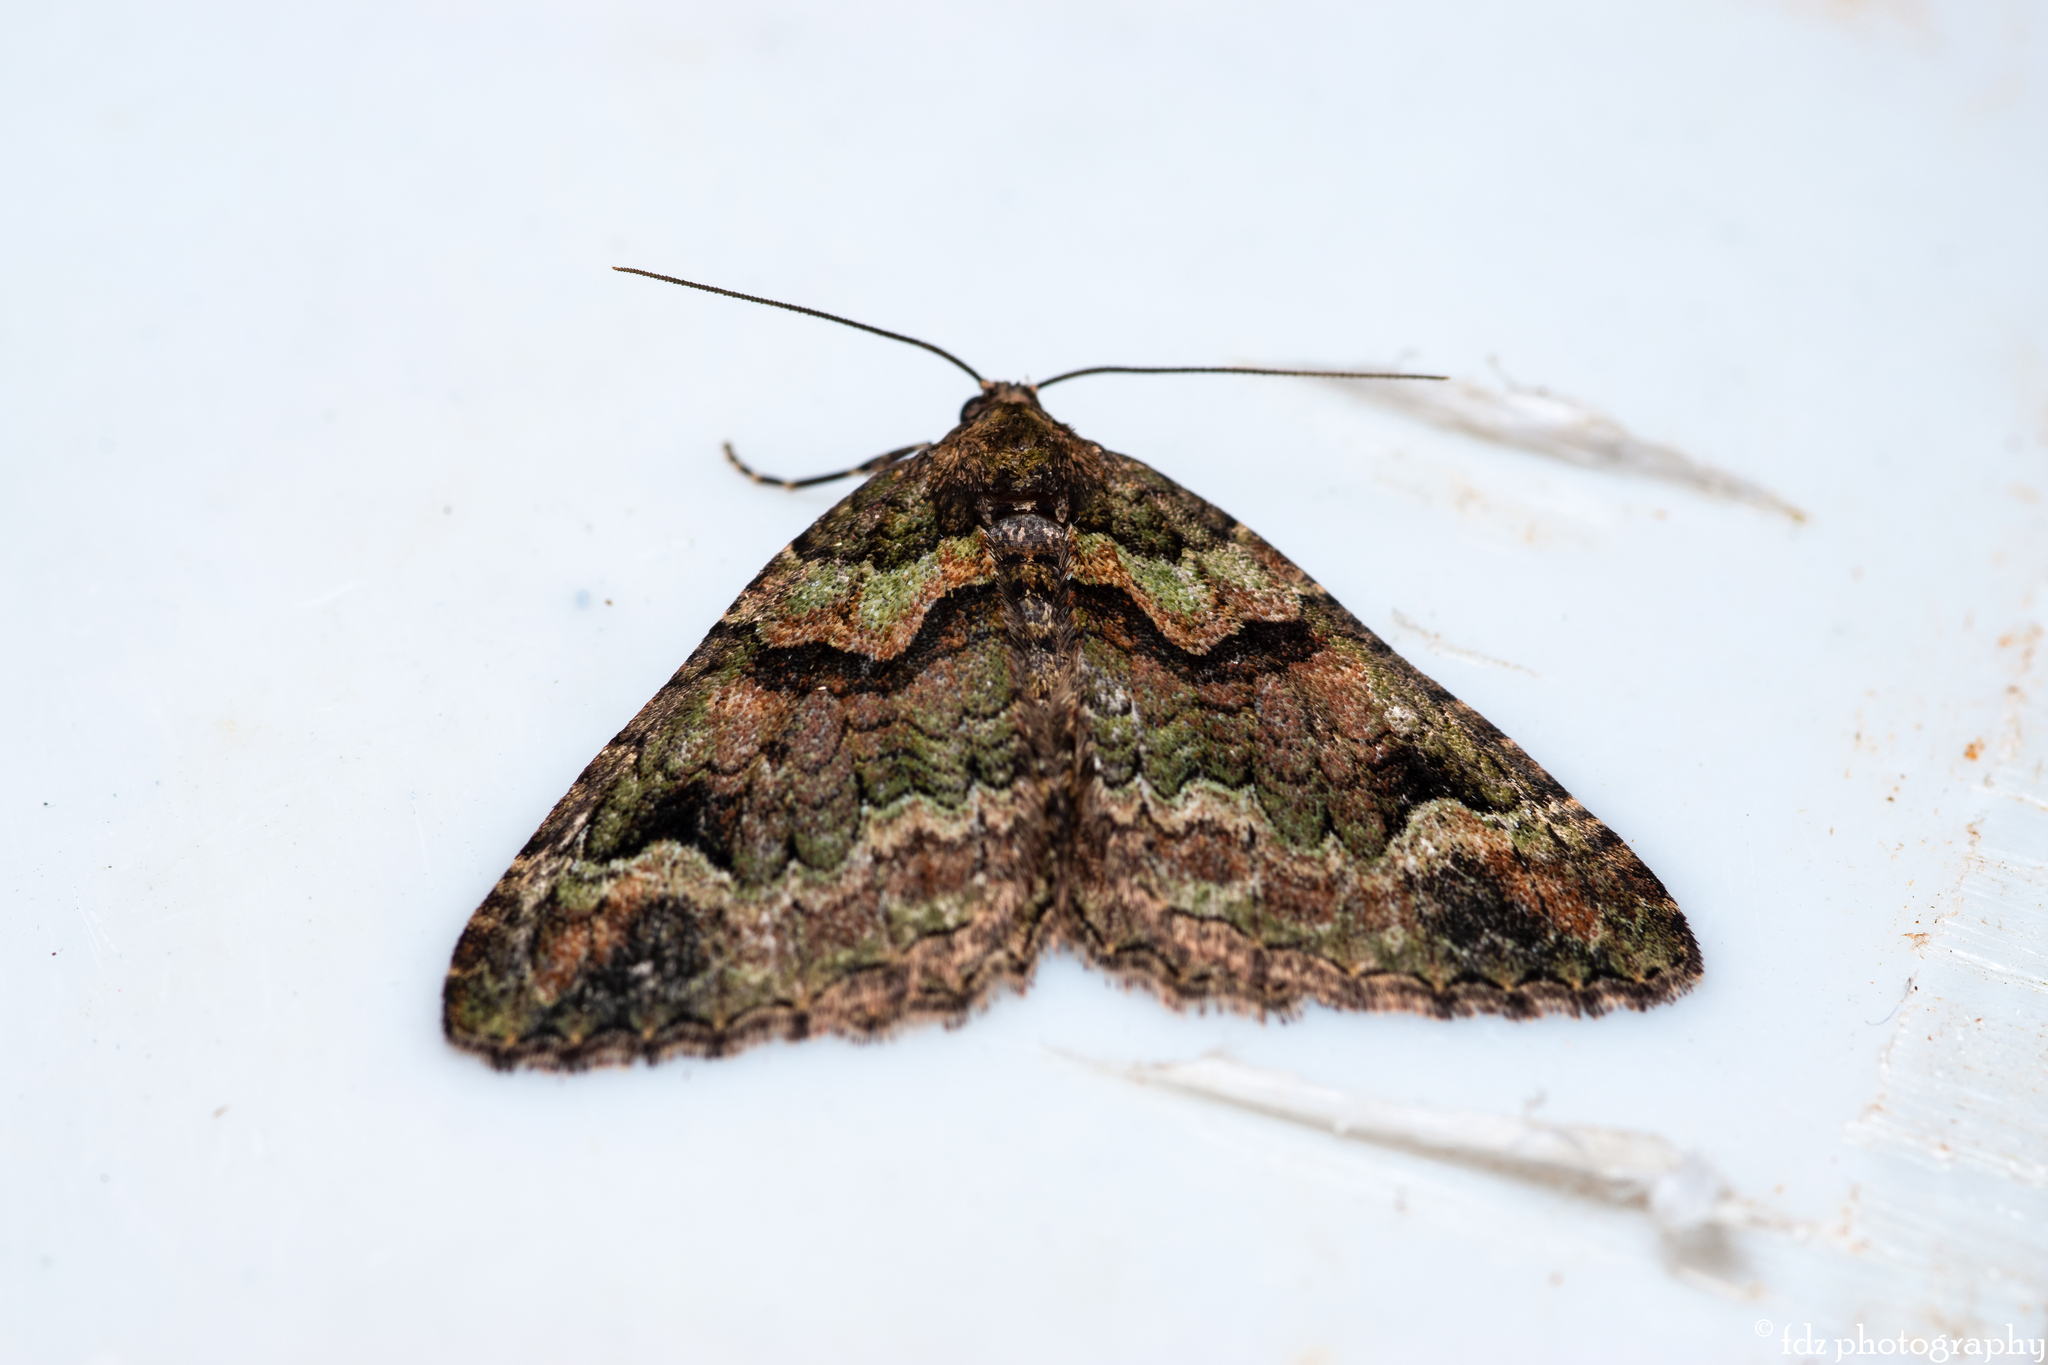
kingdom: Animalia
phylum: Arthropoda
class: Insecta
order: Lepidoptera
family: Geometridae
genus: Catarhoe
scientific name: Catarhoe basochesiata
